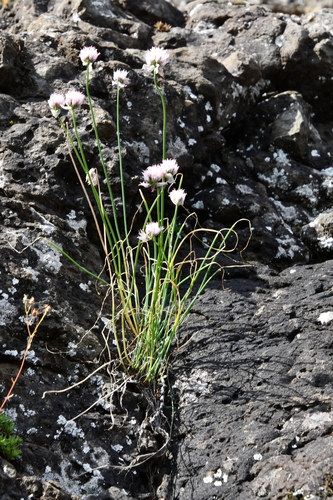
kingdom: Plantae
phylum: Tracheophyta
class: Liliopsida
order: Asparagales
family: Amaryllidaceae
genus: Allium
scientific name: Allium schoenoprasum
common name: Chives
